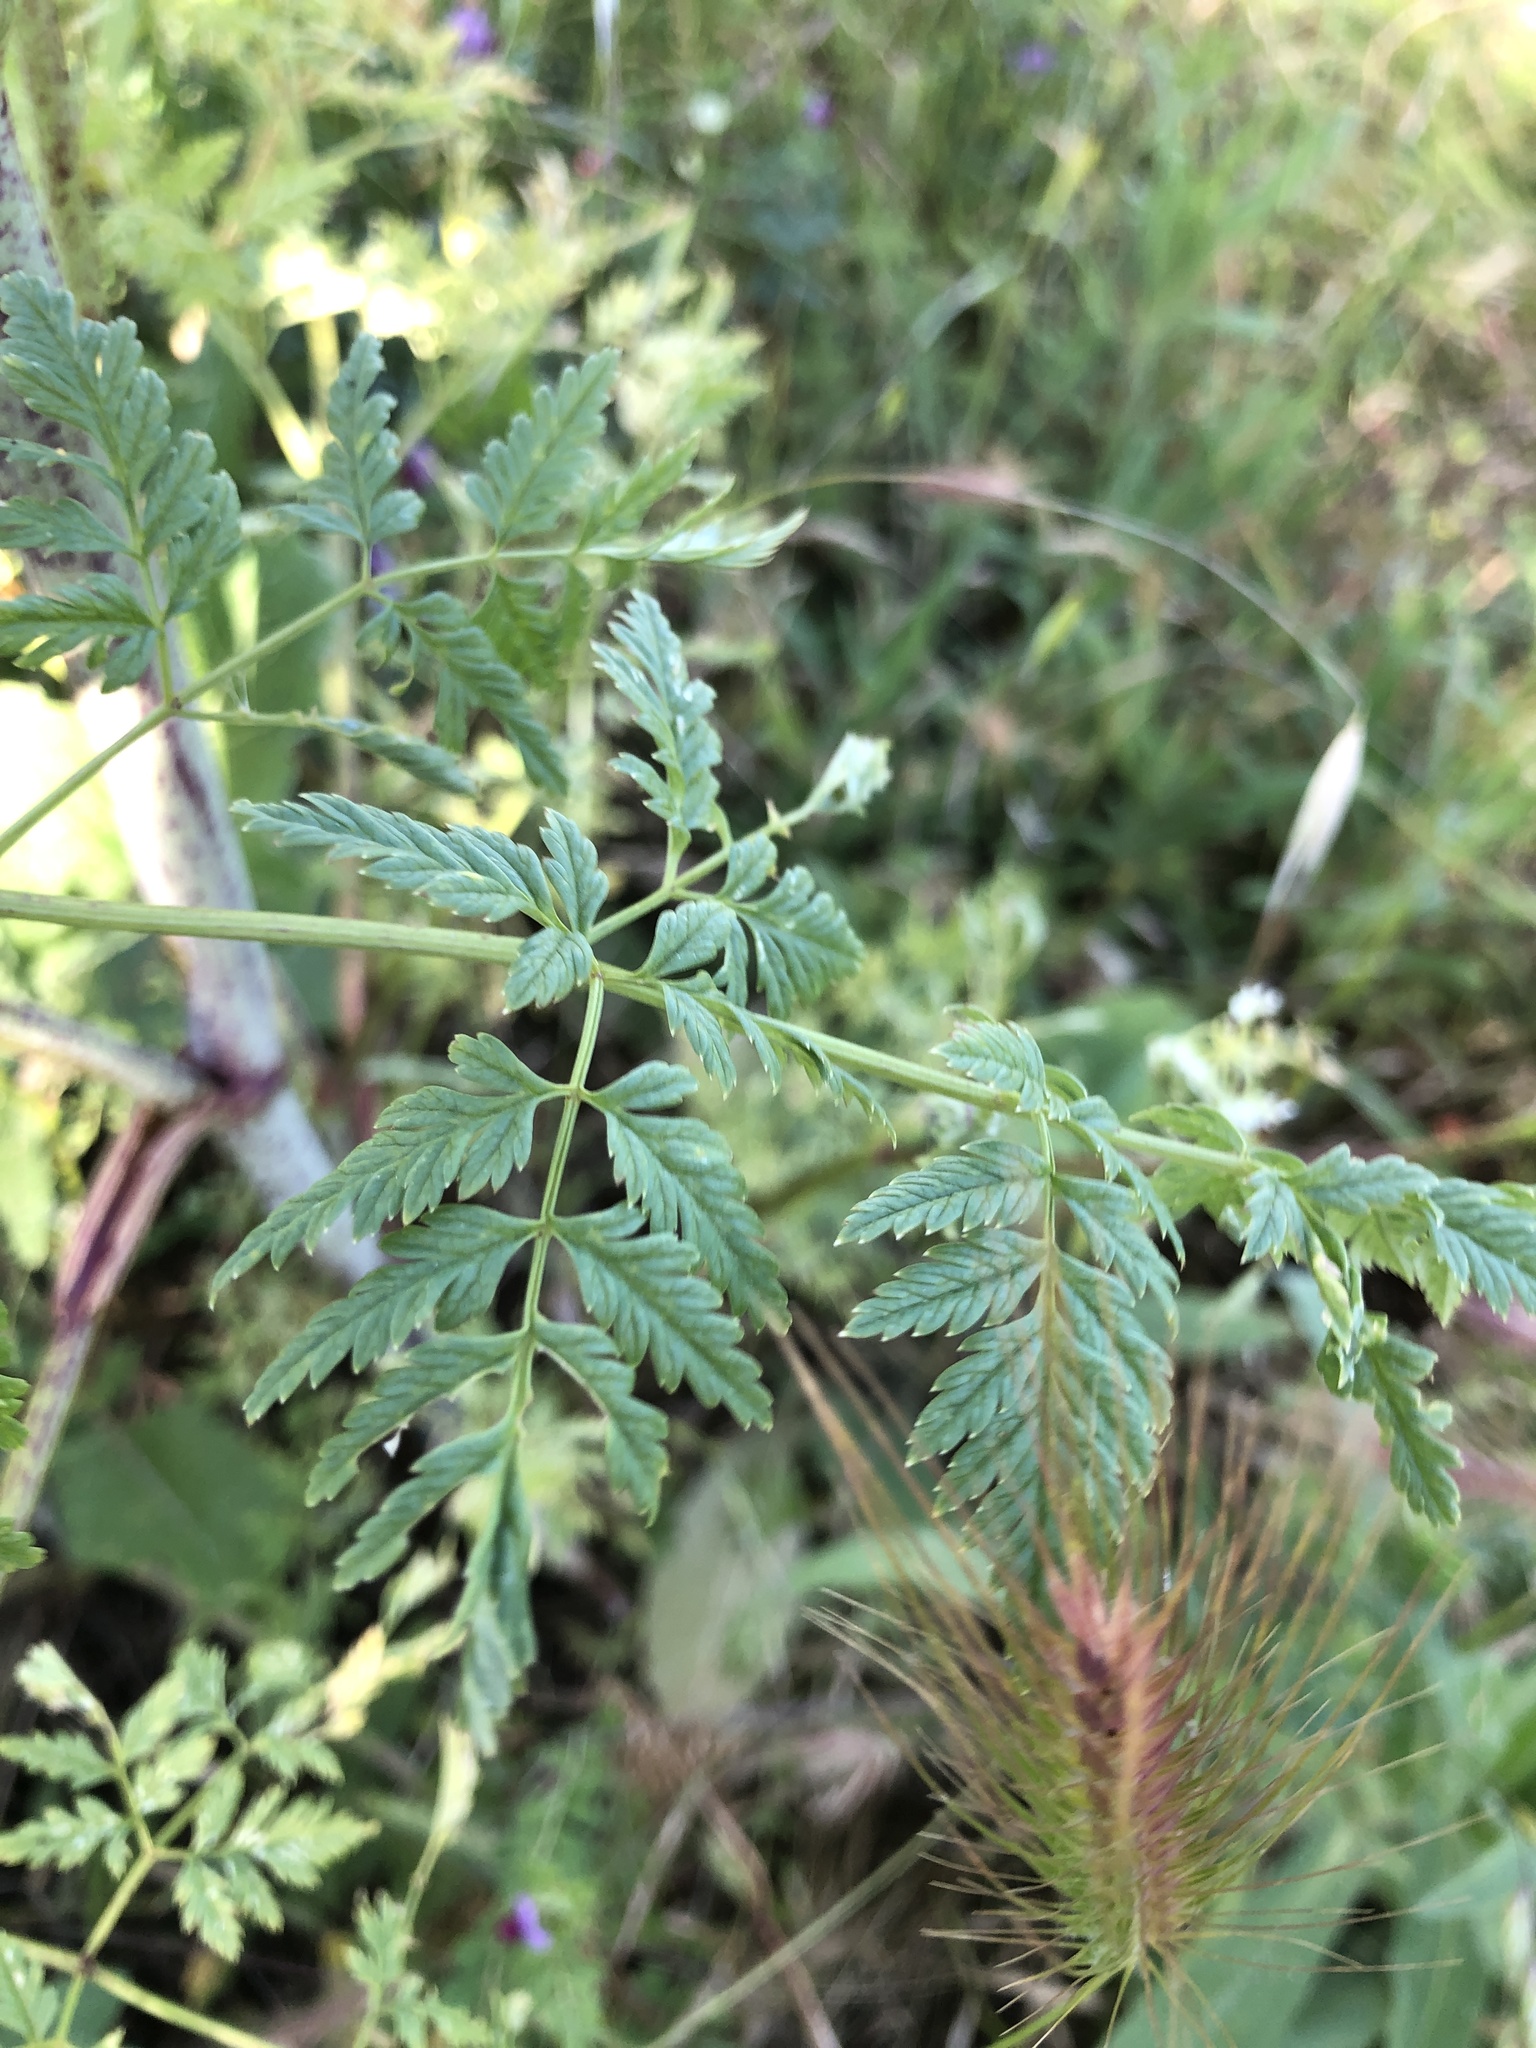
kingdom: Plantae
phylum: Tracheophyta
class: Magnoliopsida
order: Apiales
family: Apiaceae
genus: Conium
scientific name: Conium maculatum
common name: Hemlock
